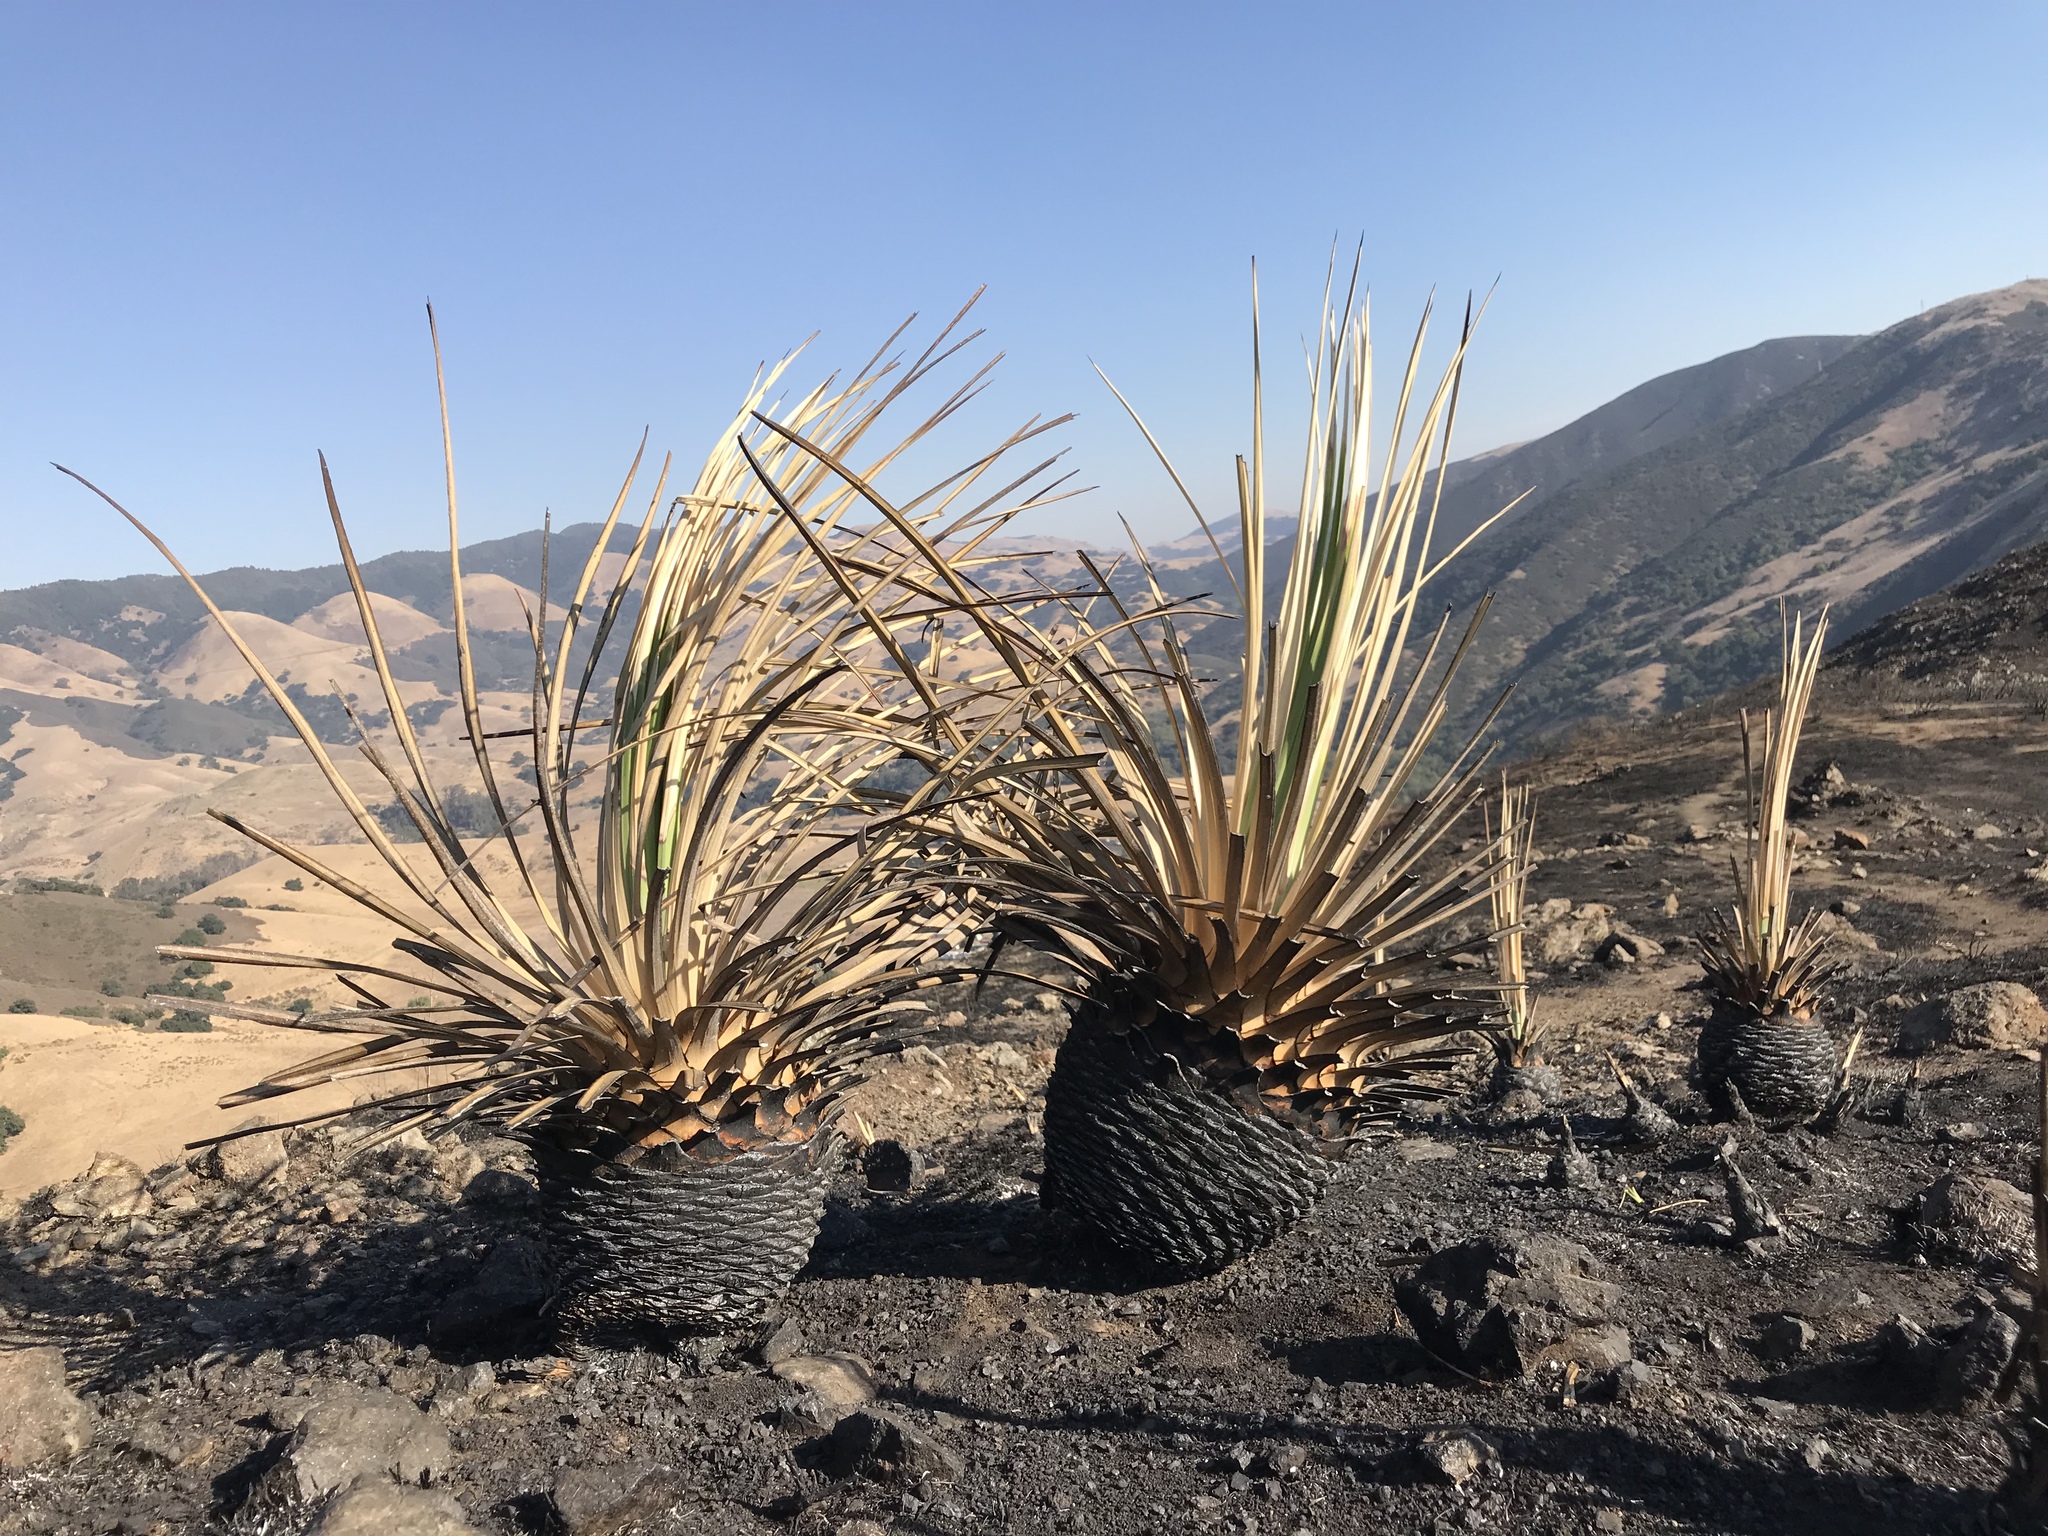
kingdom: Plantae
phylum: Tracheophyta
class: Liliopsida
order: Asparagales
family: Asparagaceae
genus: Hesperoyucca
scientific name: Hesperoyucca whipplei
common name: Our lord's-candle
